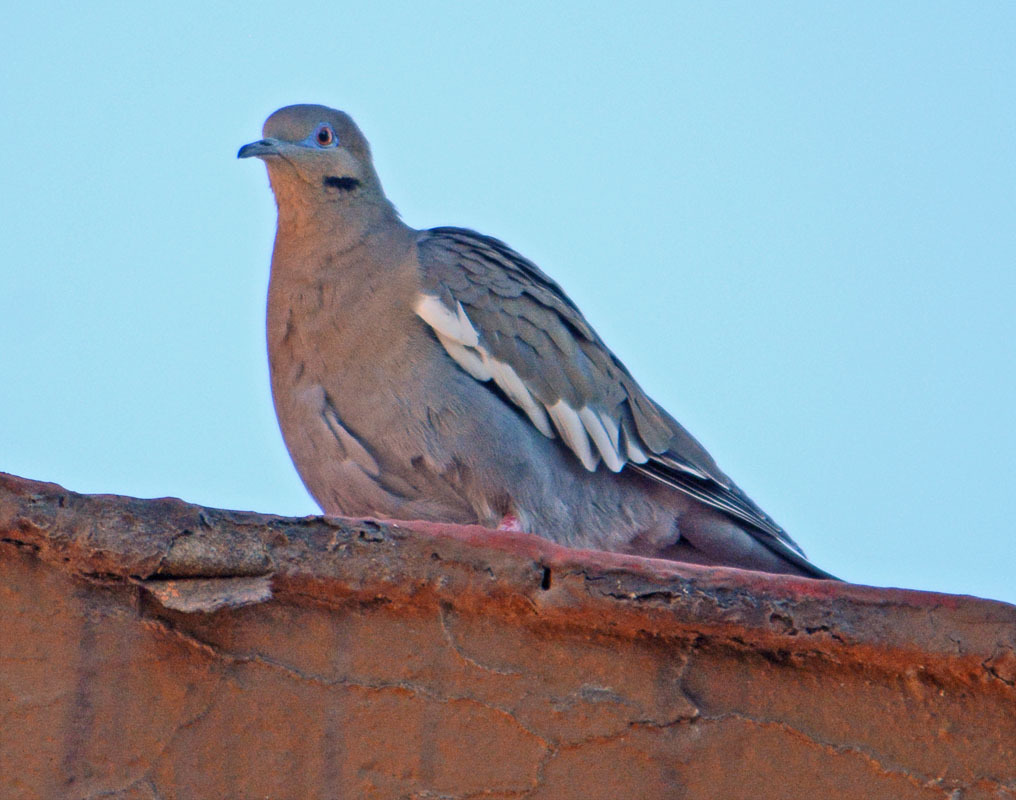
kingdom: Animalia
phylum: Chordata
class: Aves
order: Columbiformes
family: Columbidae
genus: Zenaida
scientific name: Zenaida asiatica
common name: White-winged dove
